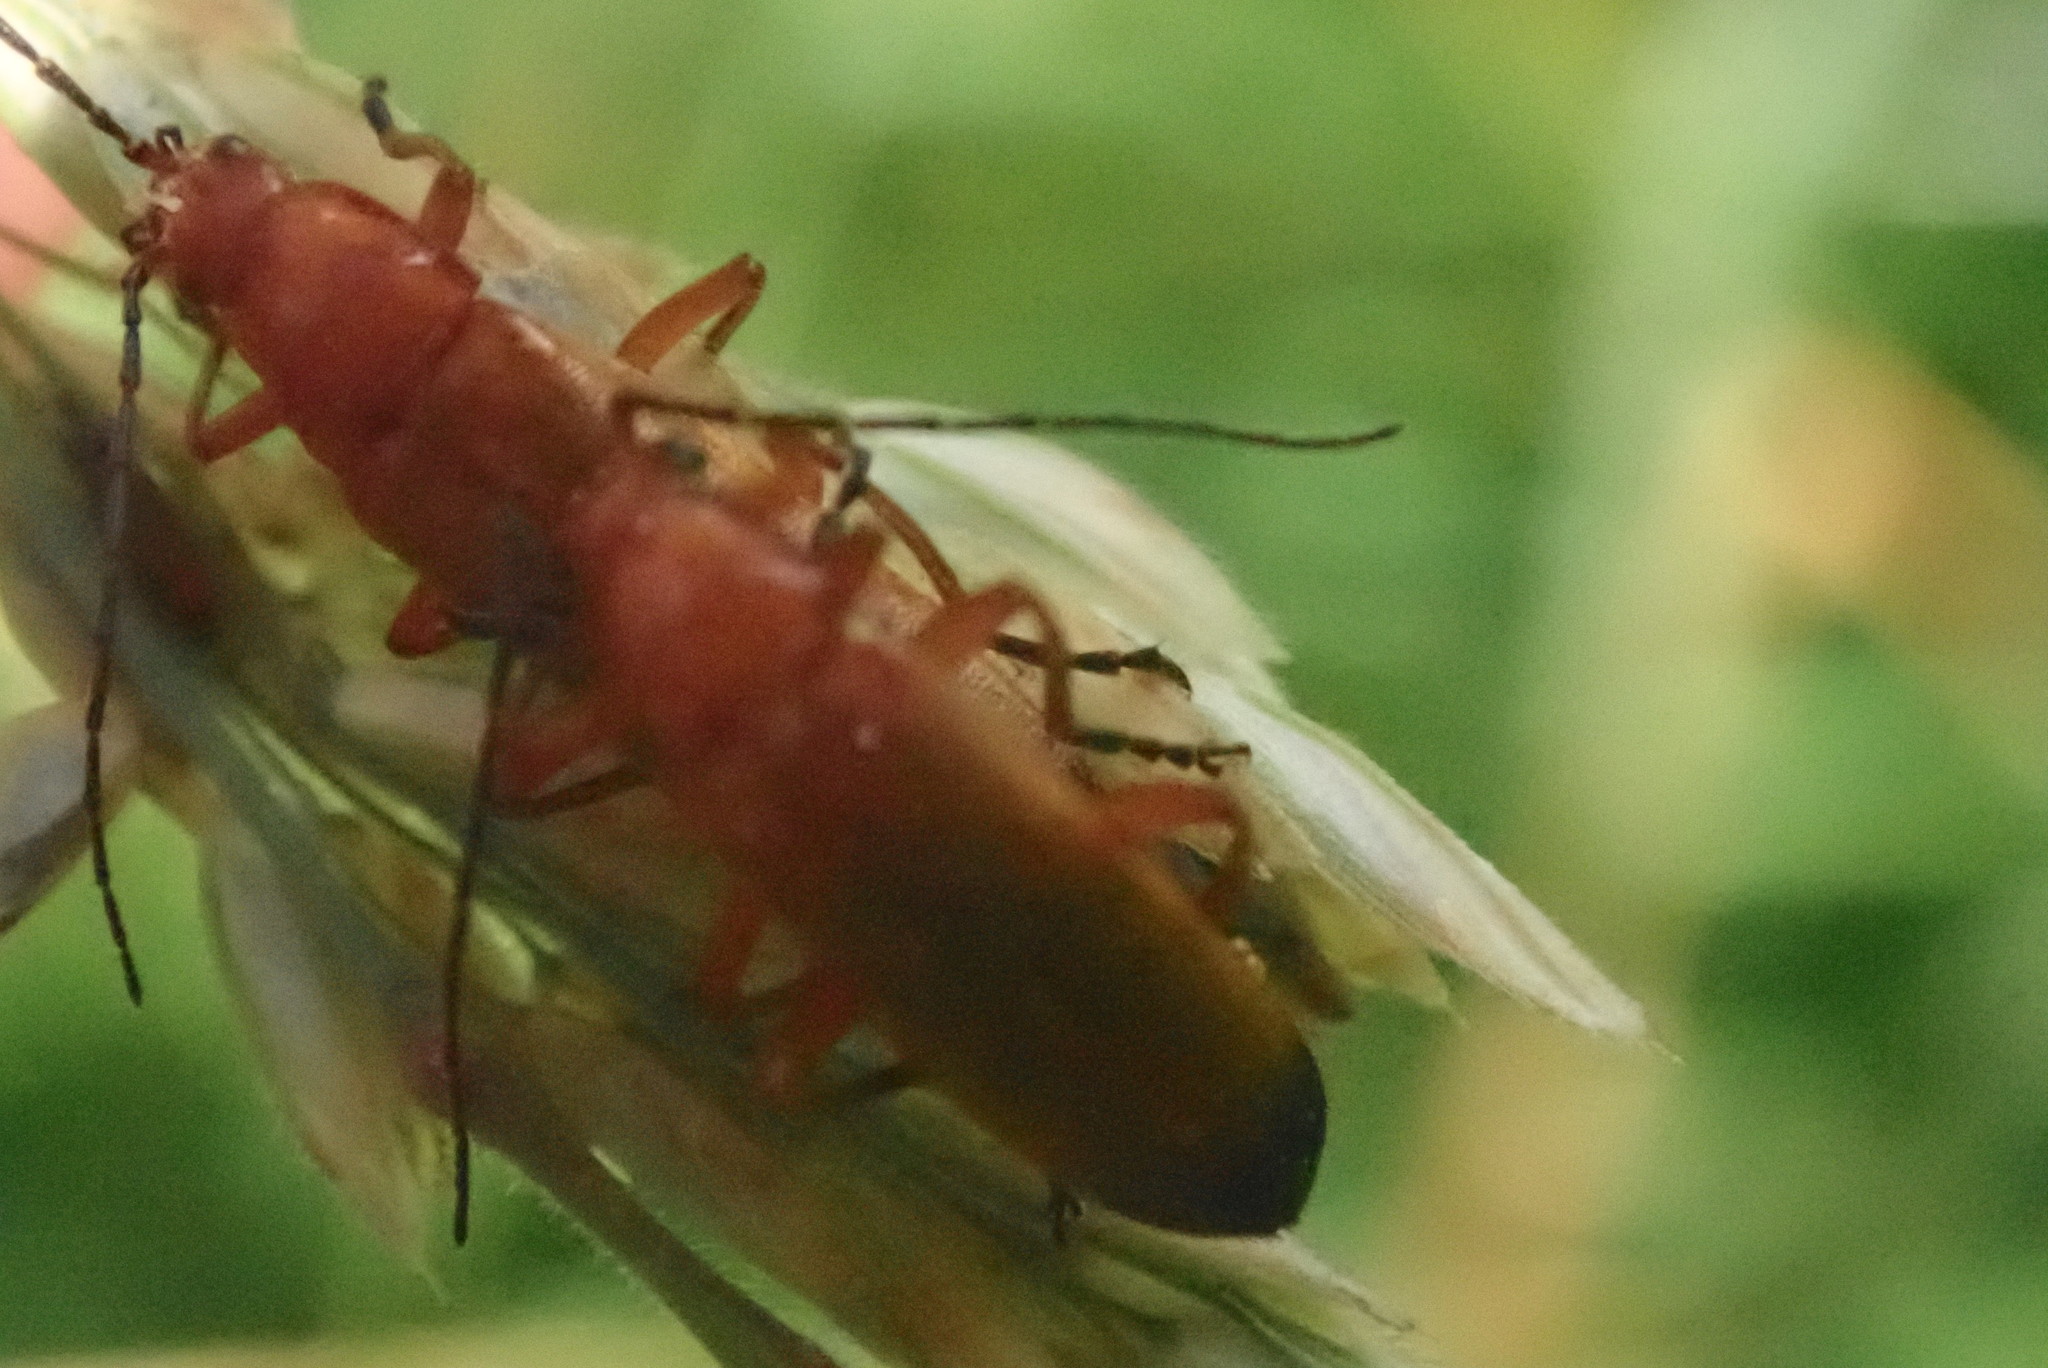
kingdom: Animalia
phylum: Arthropoda
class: Insecta
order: Coleoptera
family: Cantharidae
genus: Rhagonycha
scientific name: Rhagonycha fulva
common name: Common red soldier beetle
